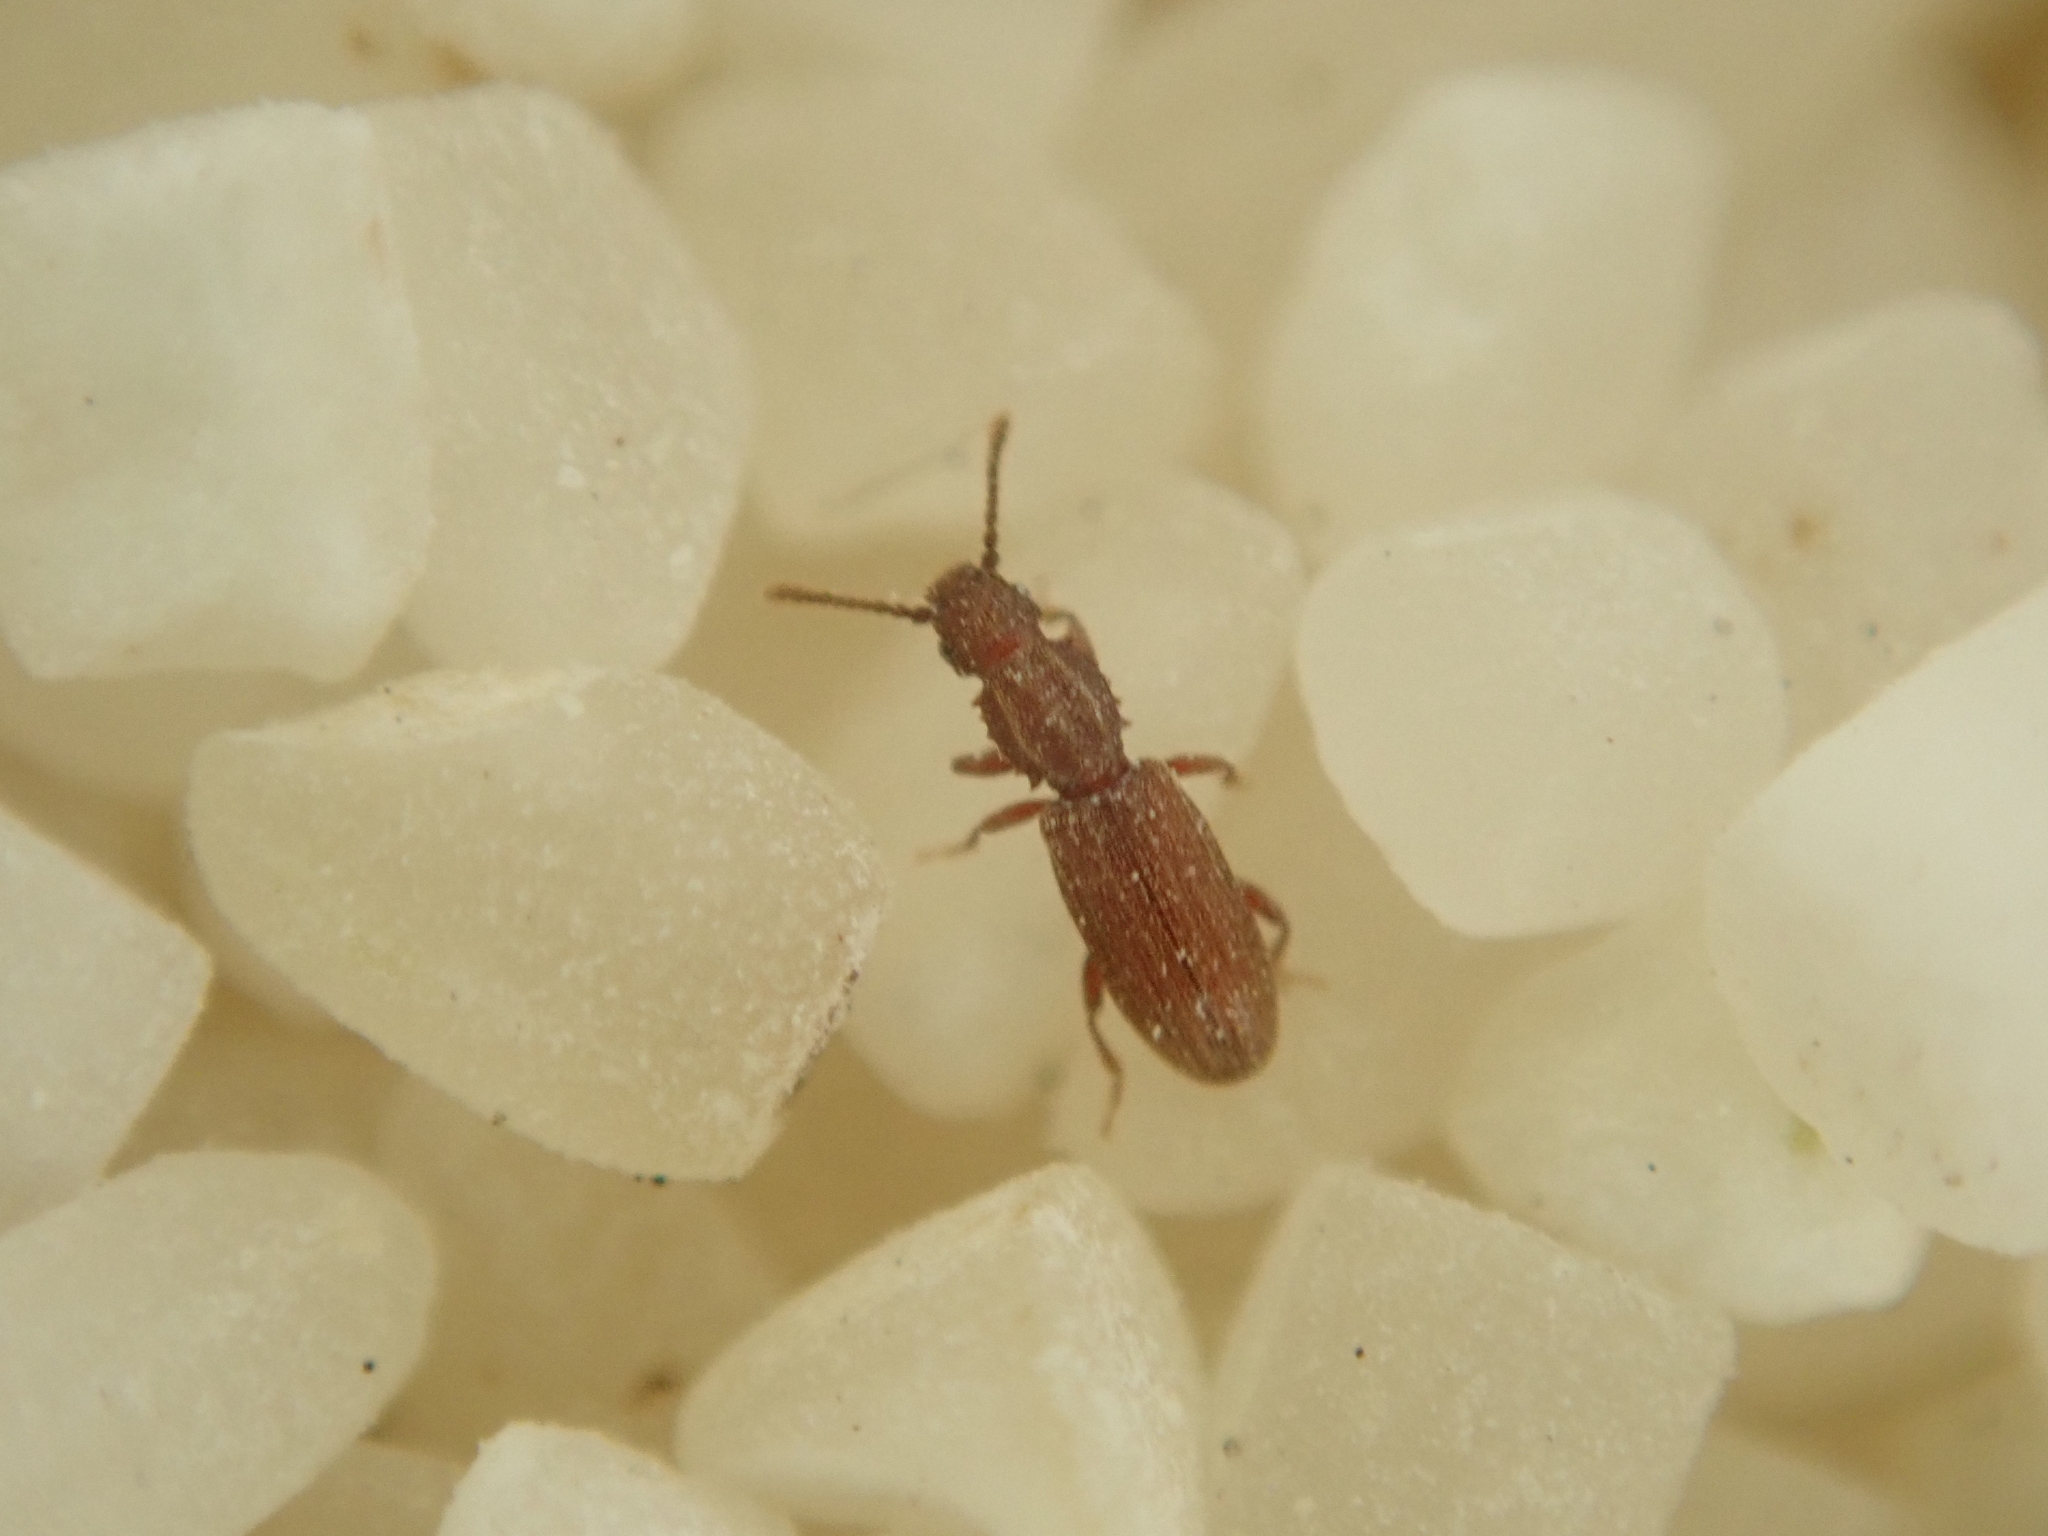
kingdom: Animalia
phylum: Arthropoda
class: Insecta
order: Coleoptera
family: Silvanidae
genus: Oryzaephilus
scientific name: Oryzaephilus surinamensis
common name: Sawtoothed grain beetle
